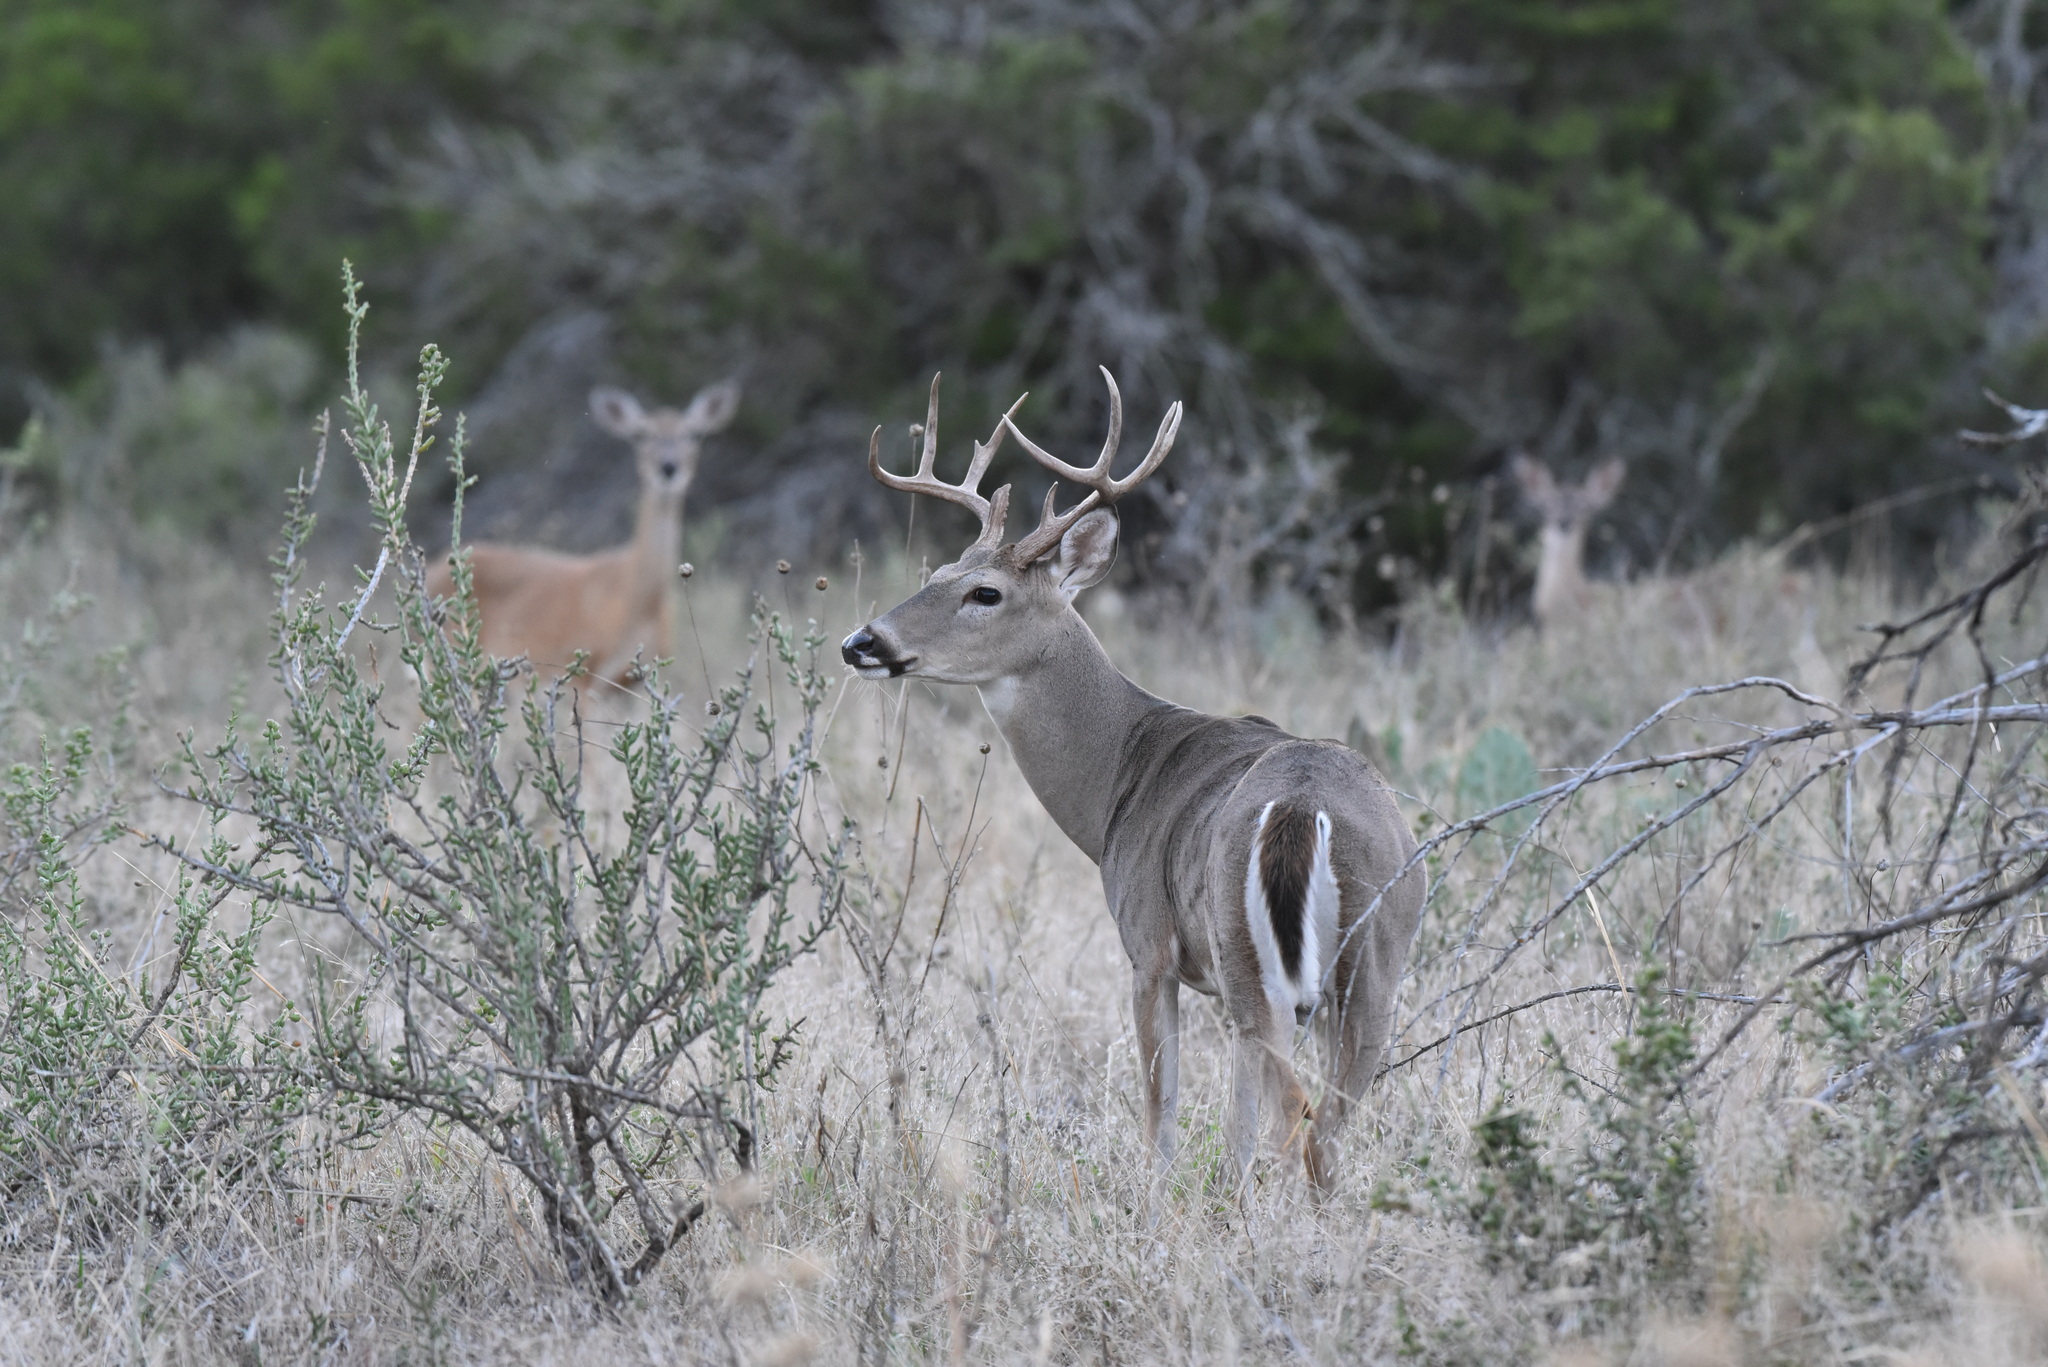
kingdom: Animalia
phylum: Chordata
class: Mammalia
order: Artiodactyla
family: Cervidae
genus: Odocoileus
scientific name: Odocoileus virginianus
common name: White-tailed deer
